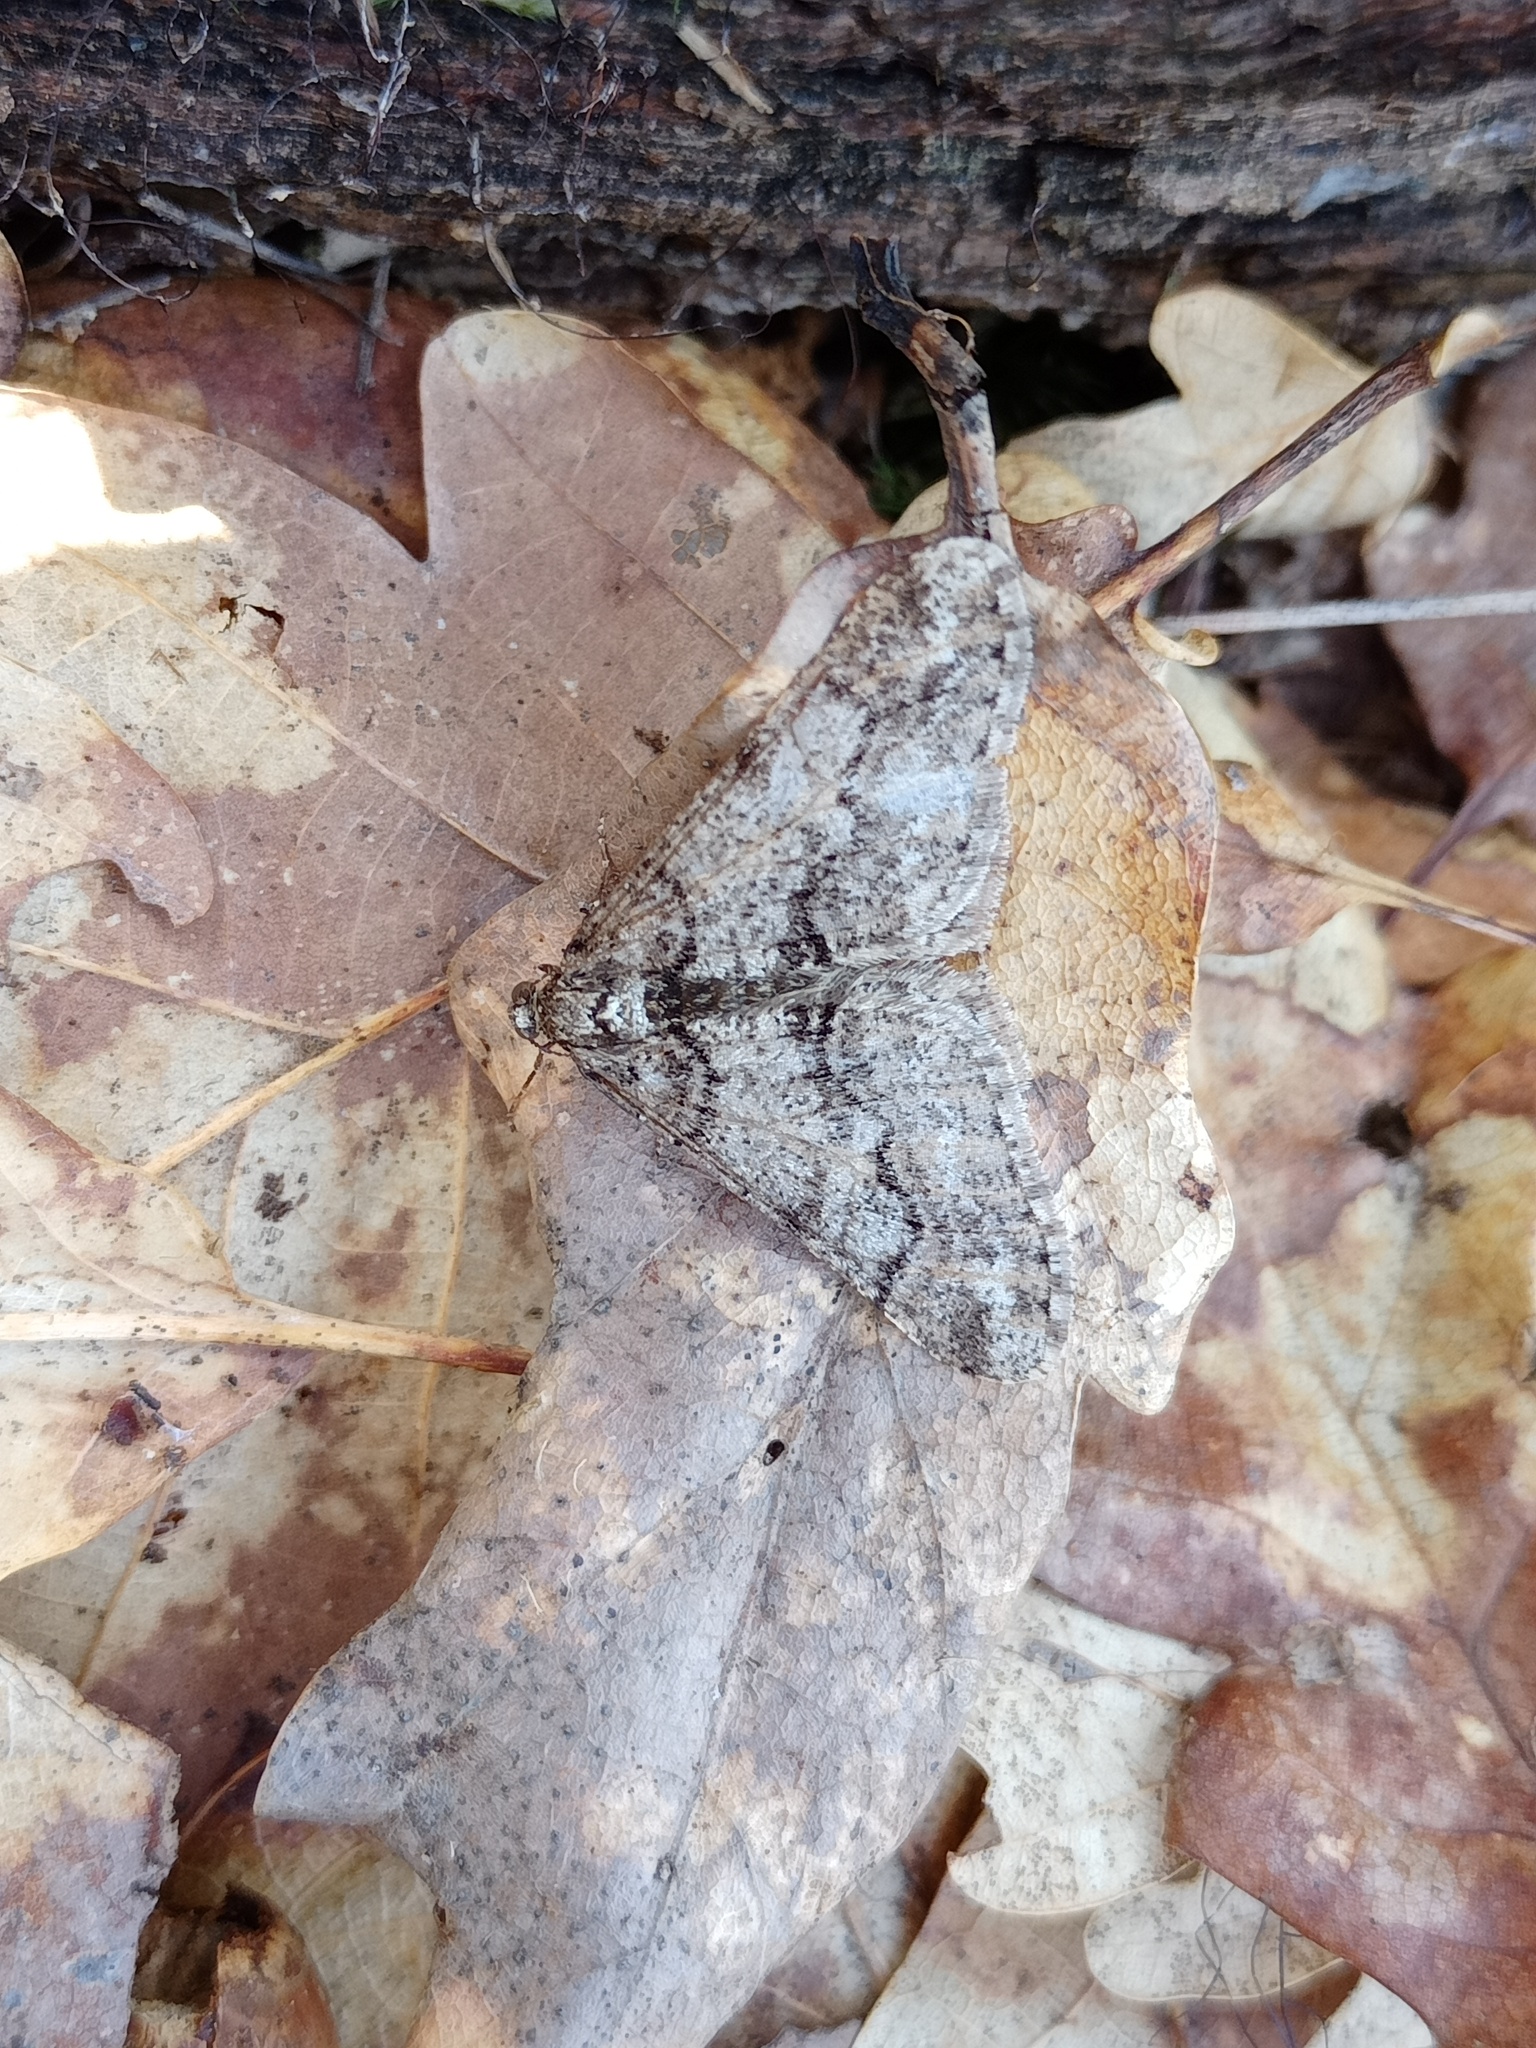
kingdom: Animalia
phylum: Arthropoda
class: Insecta
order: Lepidoptera
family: Geometridae
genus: Agriopis
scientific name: Agriopis leucophaearia
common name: Spring usher
